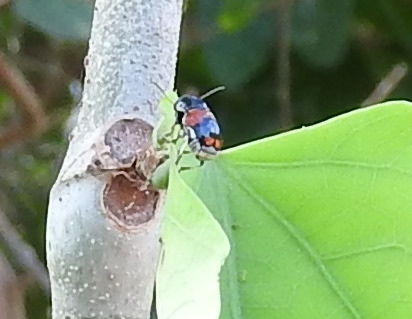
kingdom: Animalia
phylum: Arthropoda
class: Insecta
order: Coleoptera
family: Chrysomelidae
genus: Griburius
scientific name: Griburius
